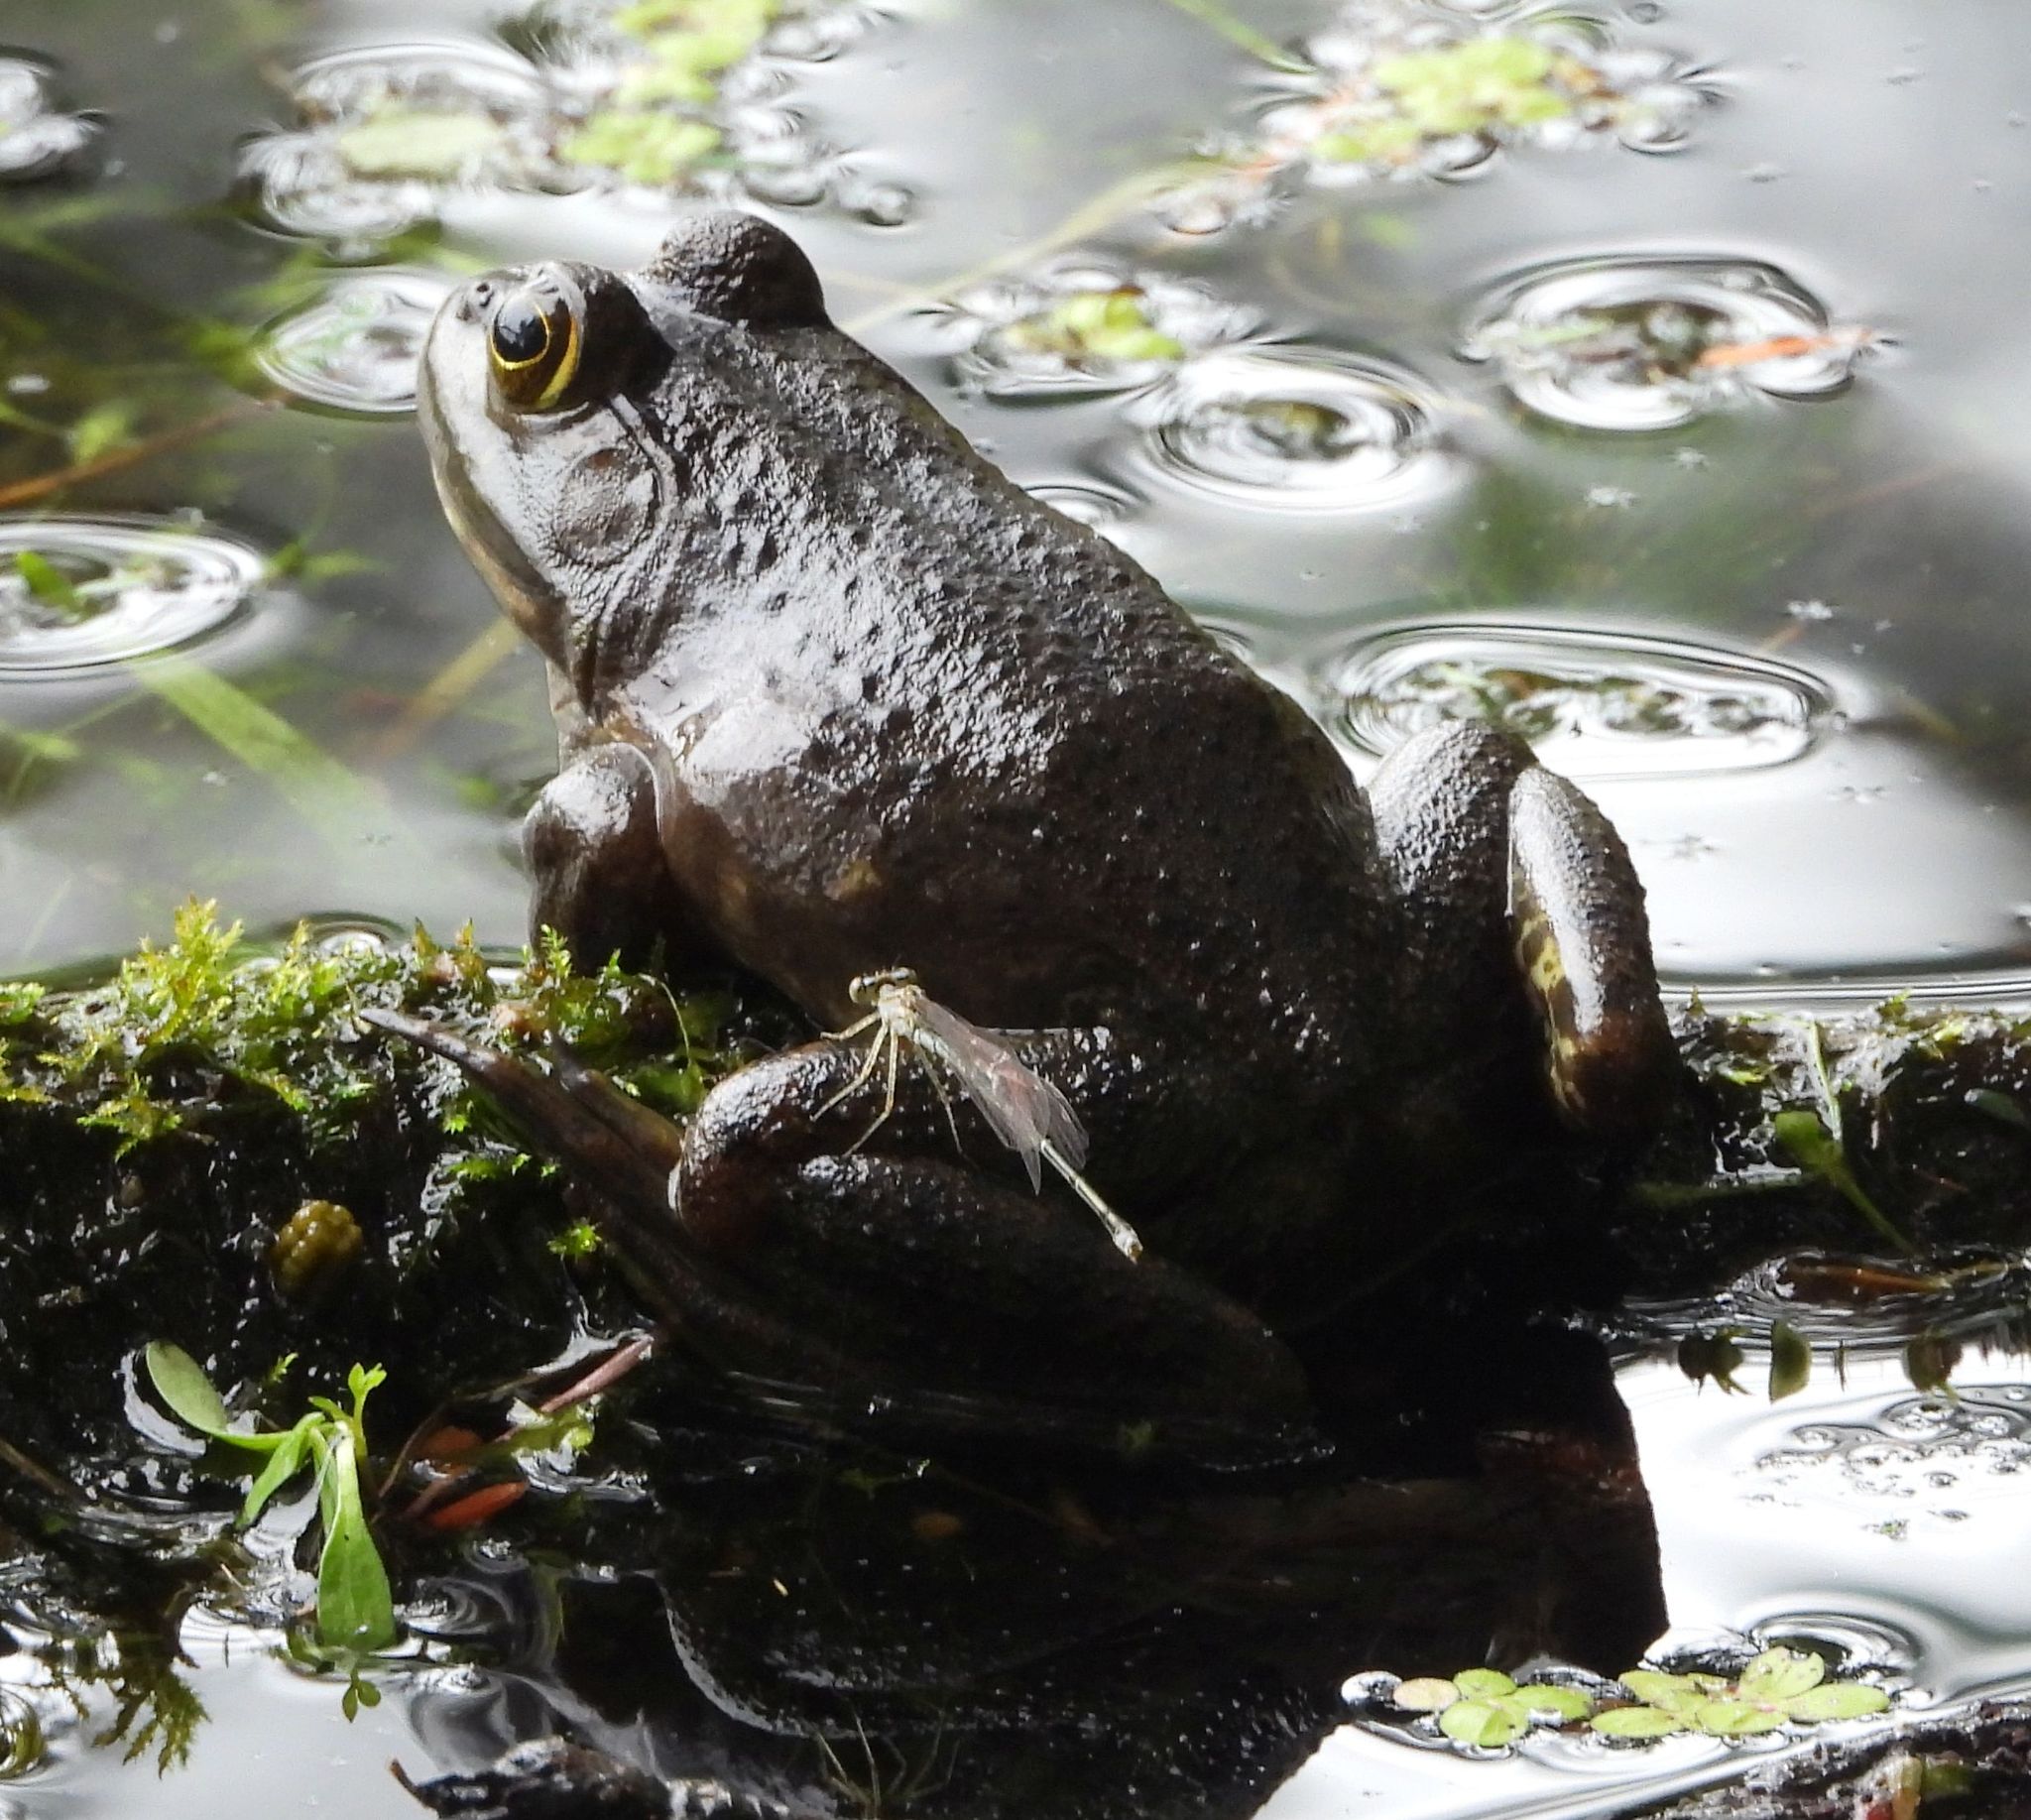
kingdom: Animalia
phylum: Chordata
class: Amphibia
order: Anura
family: Ranidae
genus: Lithobates
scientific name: Lithobates catesbeianus
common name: American bullfrog
